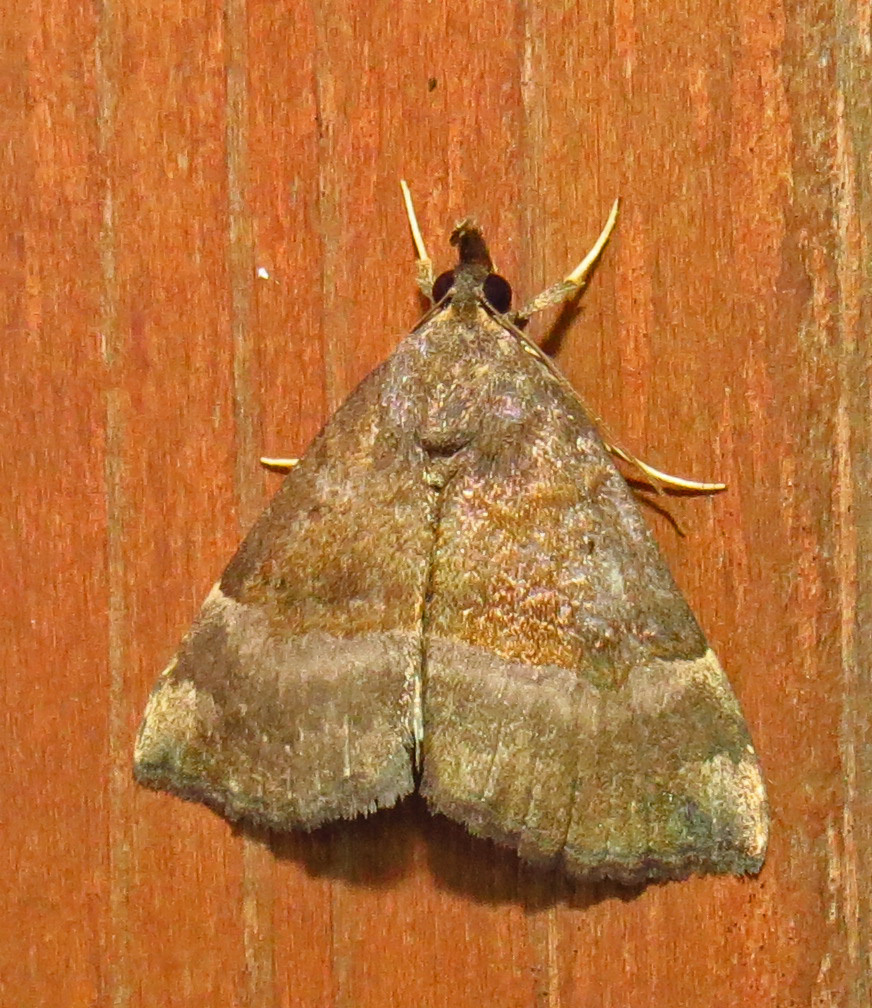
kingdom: Animalia
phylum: Arthropoda
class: Insecta
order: Lepidoptera
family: Erebidae
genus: Hypena
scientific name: Hypena madefactalis
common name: Gray-edged snout
